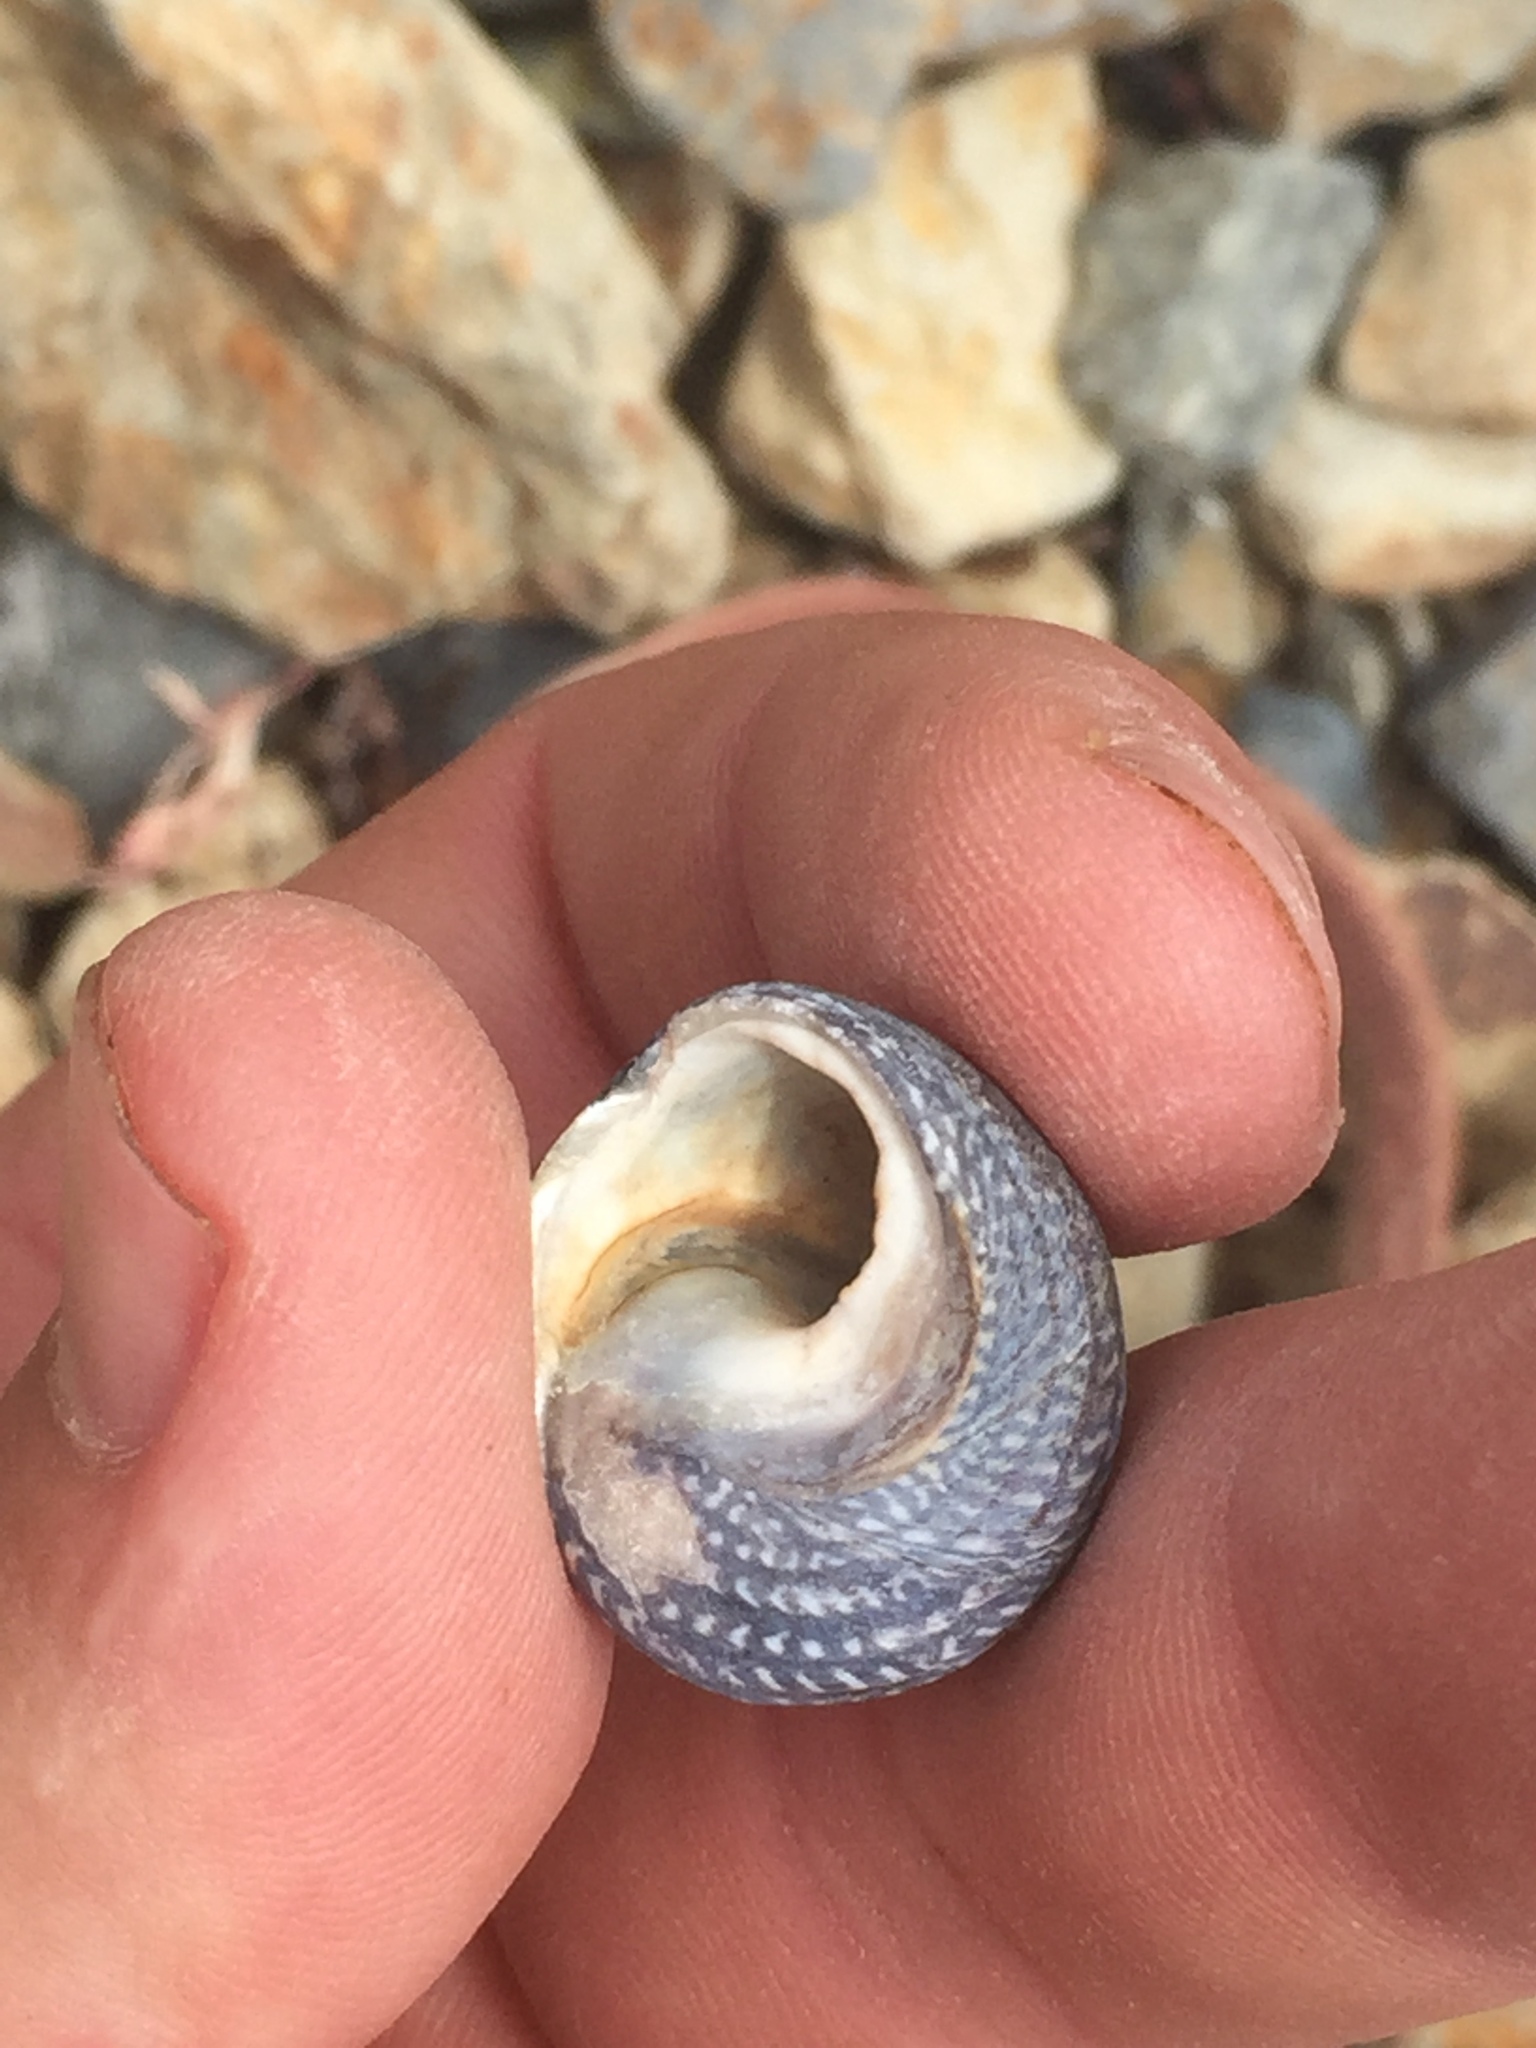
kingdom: Animalia
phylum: Mollusca
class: Gastropoda
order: Trochida
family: Trochidae
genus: Diloma
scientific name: Diloma aethiops
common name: Scorched monodont
